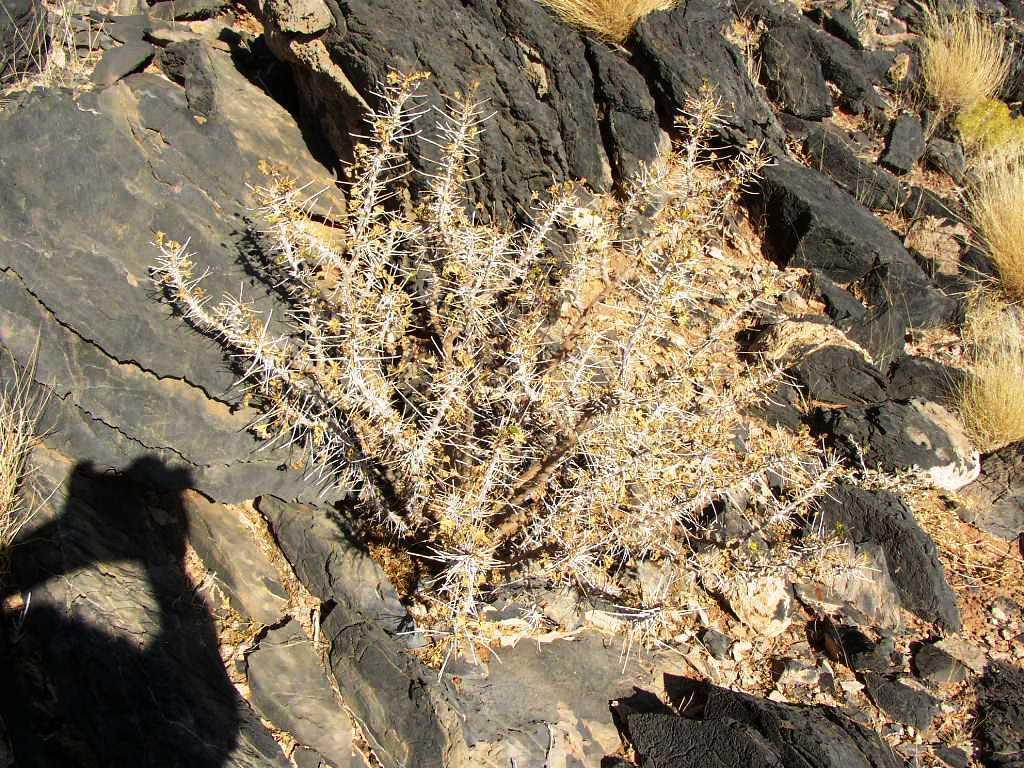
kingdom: Plantae
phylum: Tracheophyta
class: Magnoliopsida
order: Geraniales
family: Geraniaceae
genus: Monsonia
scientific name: Monsonia marlothii
